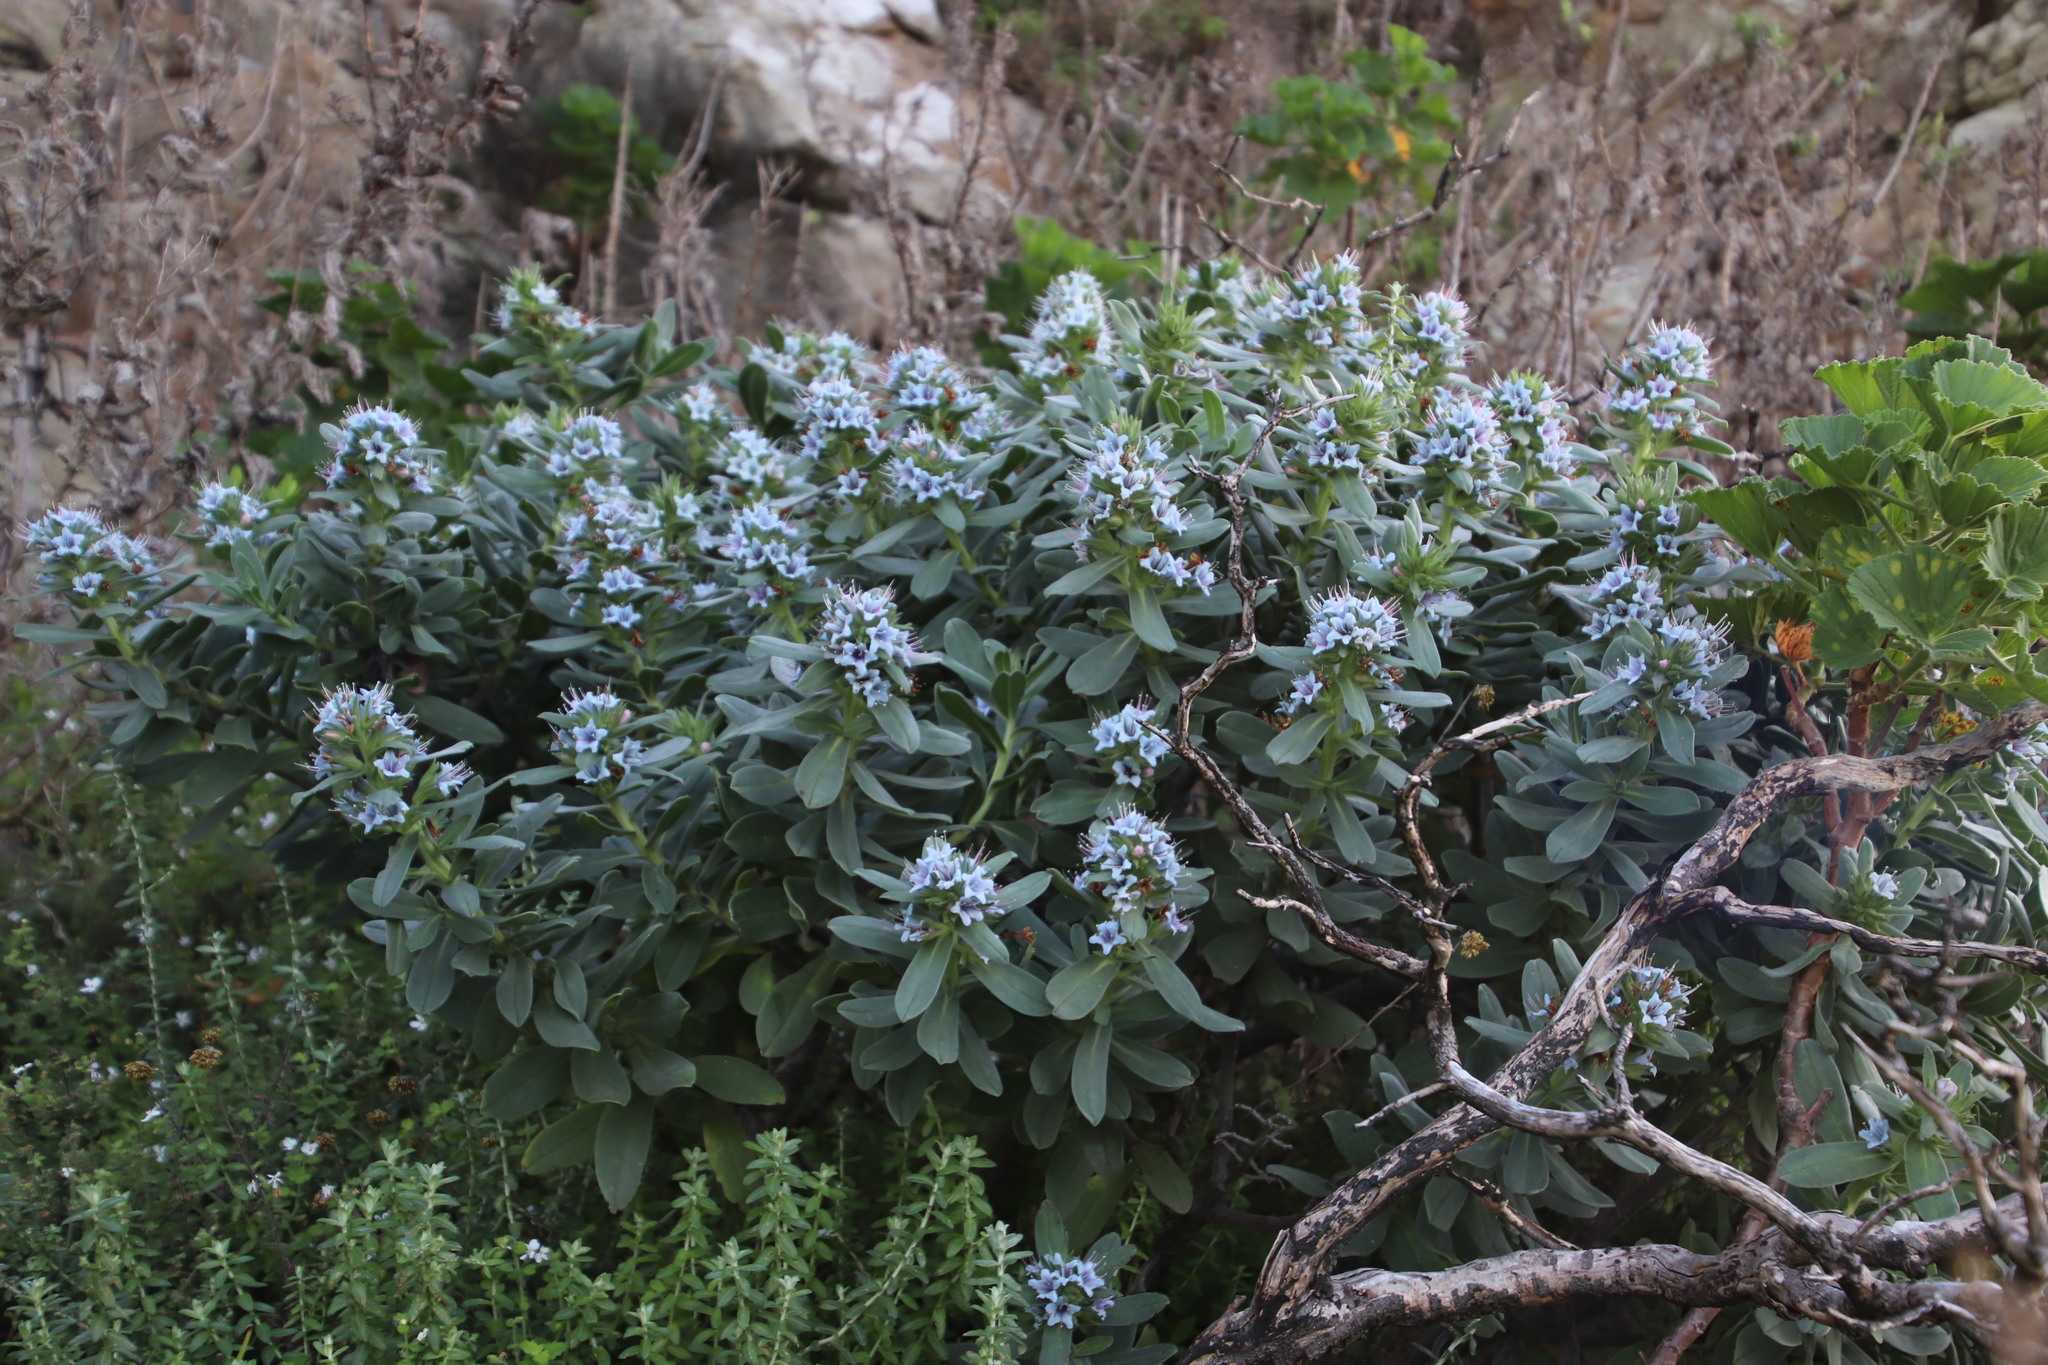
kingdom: Plantae
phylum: Tracheophyta
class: Magnoliopsida
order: Boraginales
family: Boraginaceae
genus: Lobostemon
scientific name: Lobostemon montanus
